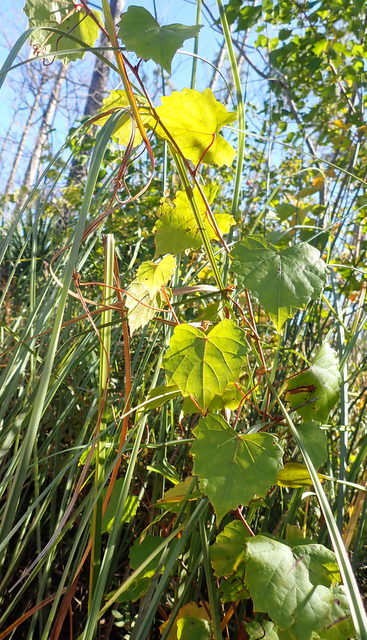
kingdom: Plantae
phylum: Tracheophyta
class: Magnoliopsida
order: Vitales
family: Vitaceae
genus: Vitis
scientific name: Vitis rotundifolia
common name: Muscadine grape
